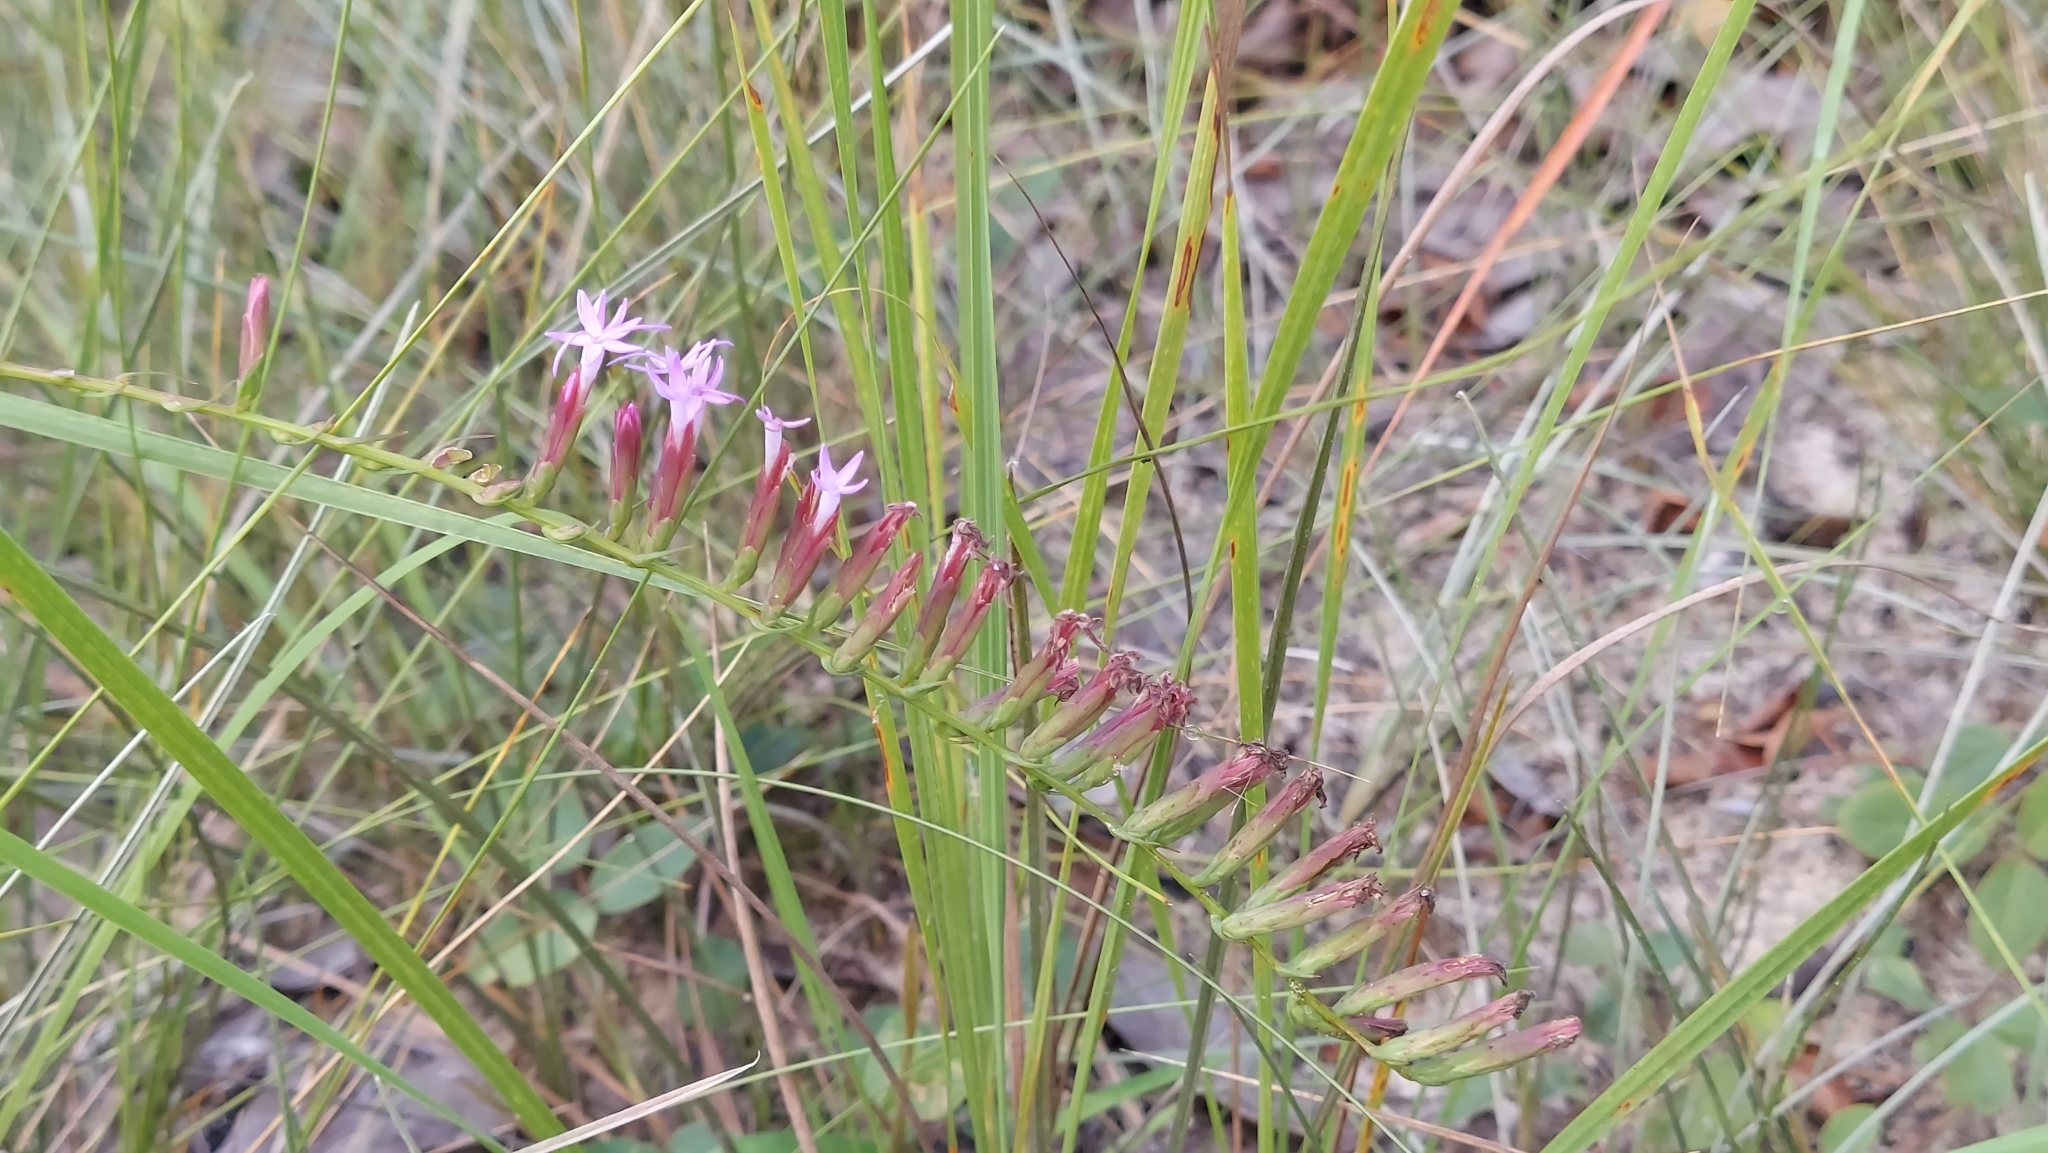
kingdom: Plantae
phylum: Tracheophyta
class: Magnoliopsida
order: Asterales
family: Asteraceae
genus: Liatris
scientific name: Liatris pauciflora
